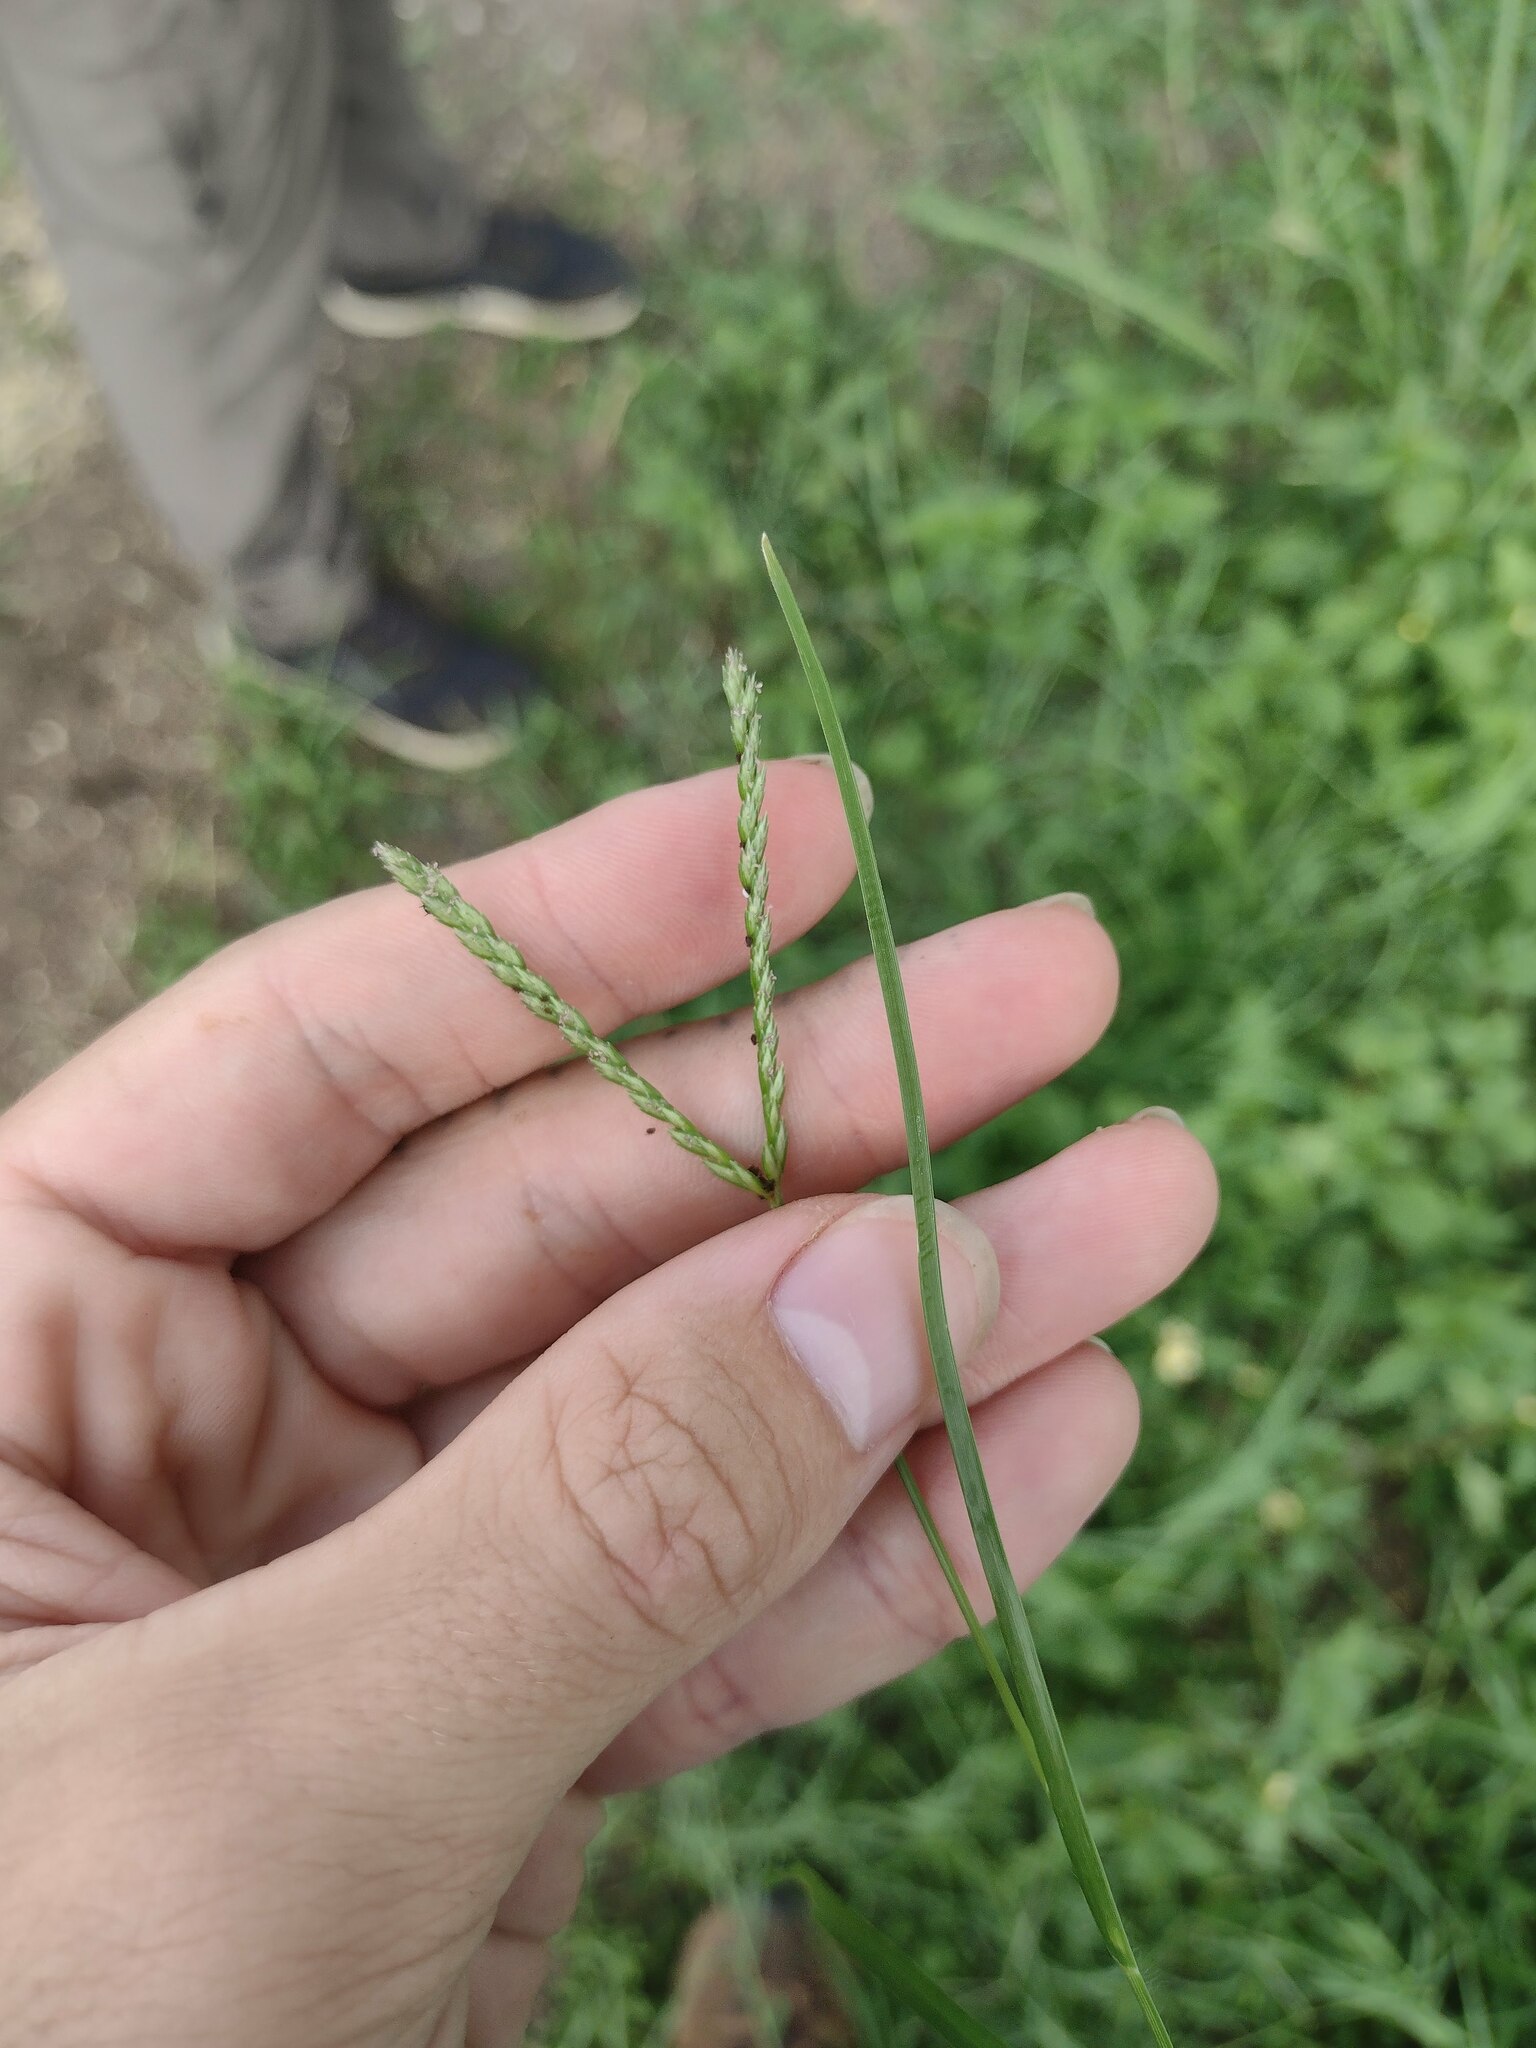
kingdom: Plantae
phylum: Tracheophyta
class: Liliopsida
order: Poales
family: Poaceae
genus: Eleusine
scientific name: Eleusine indica
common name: Yard-grass
